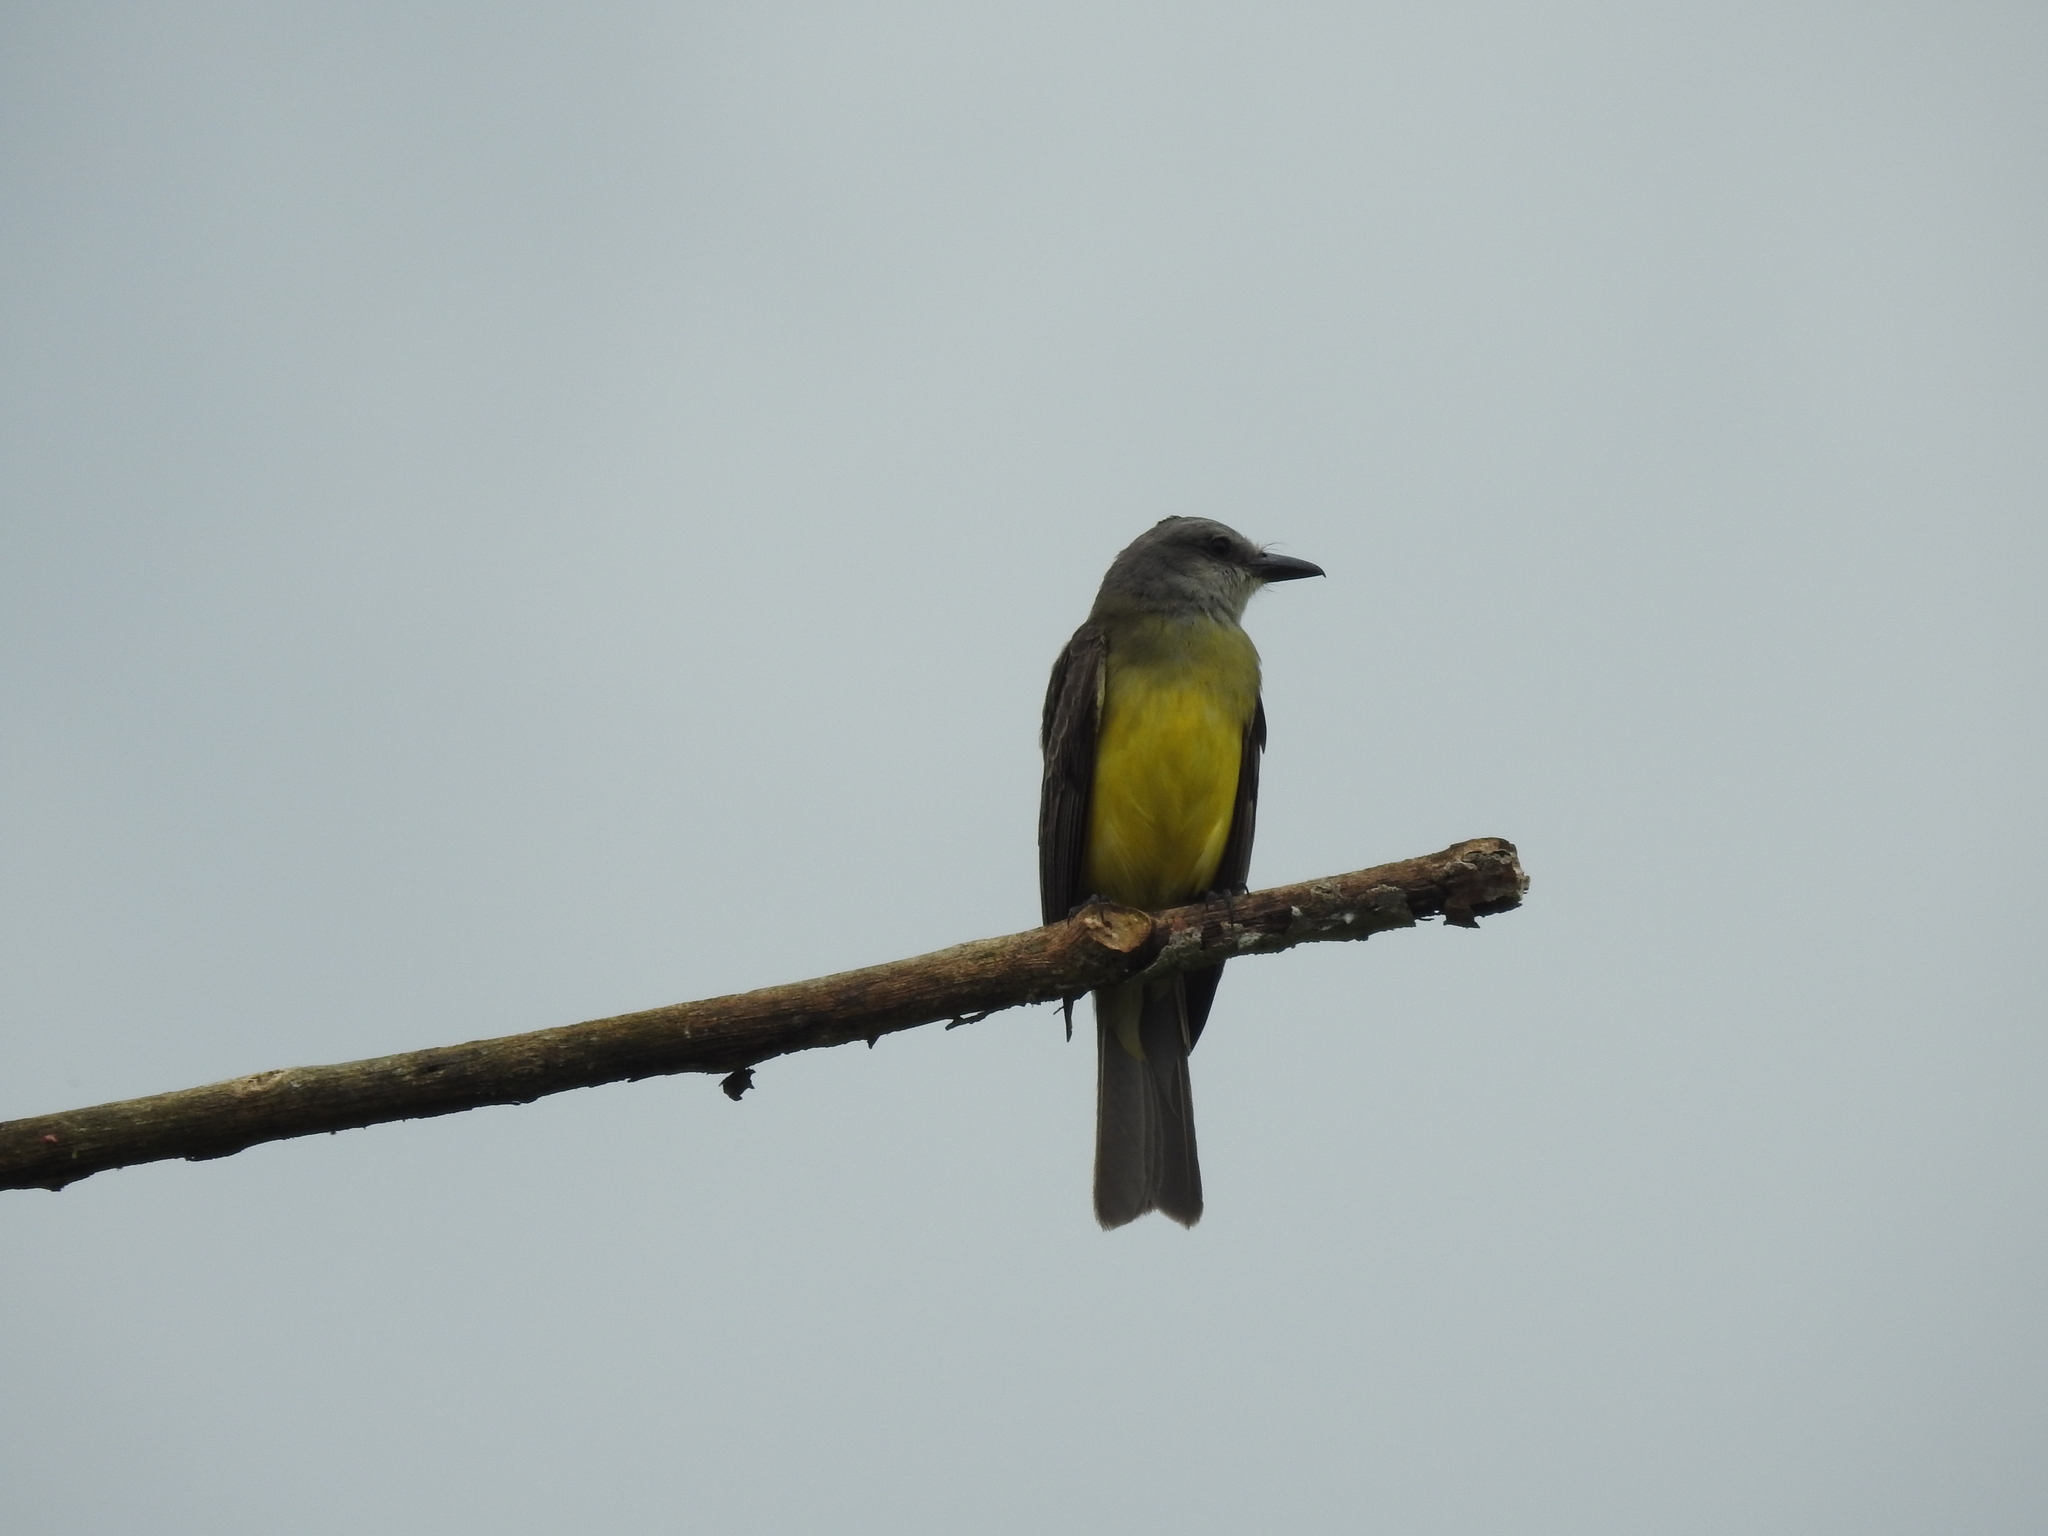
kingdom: Animalia
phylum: Chordata
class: Aves
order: Passeriformes
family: Tyrannidae
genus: Tyrannus
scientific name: Tyrannus melancholicus
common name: Tropical kingbird
